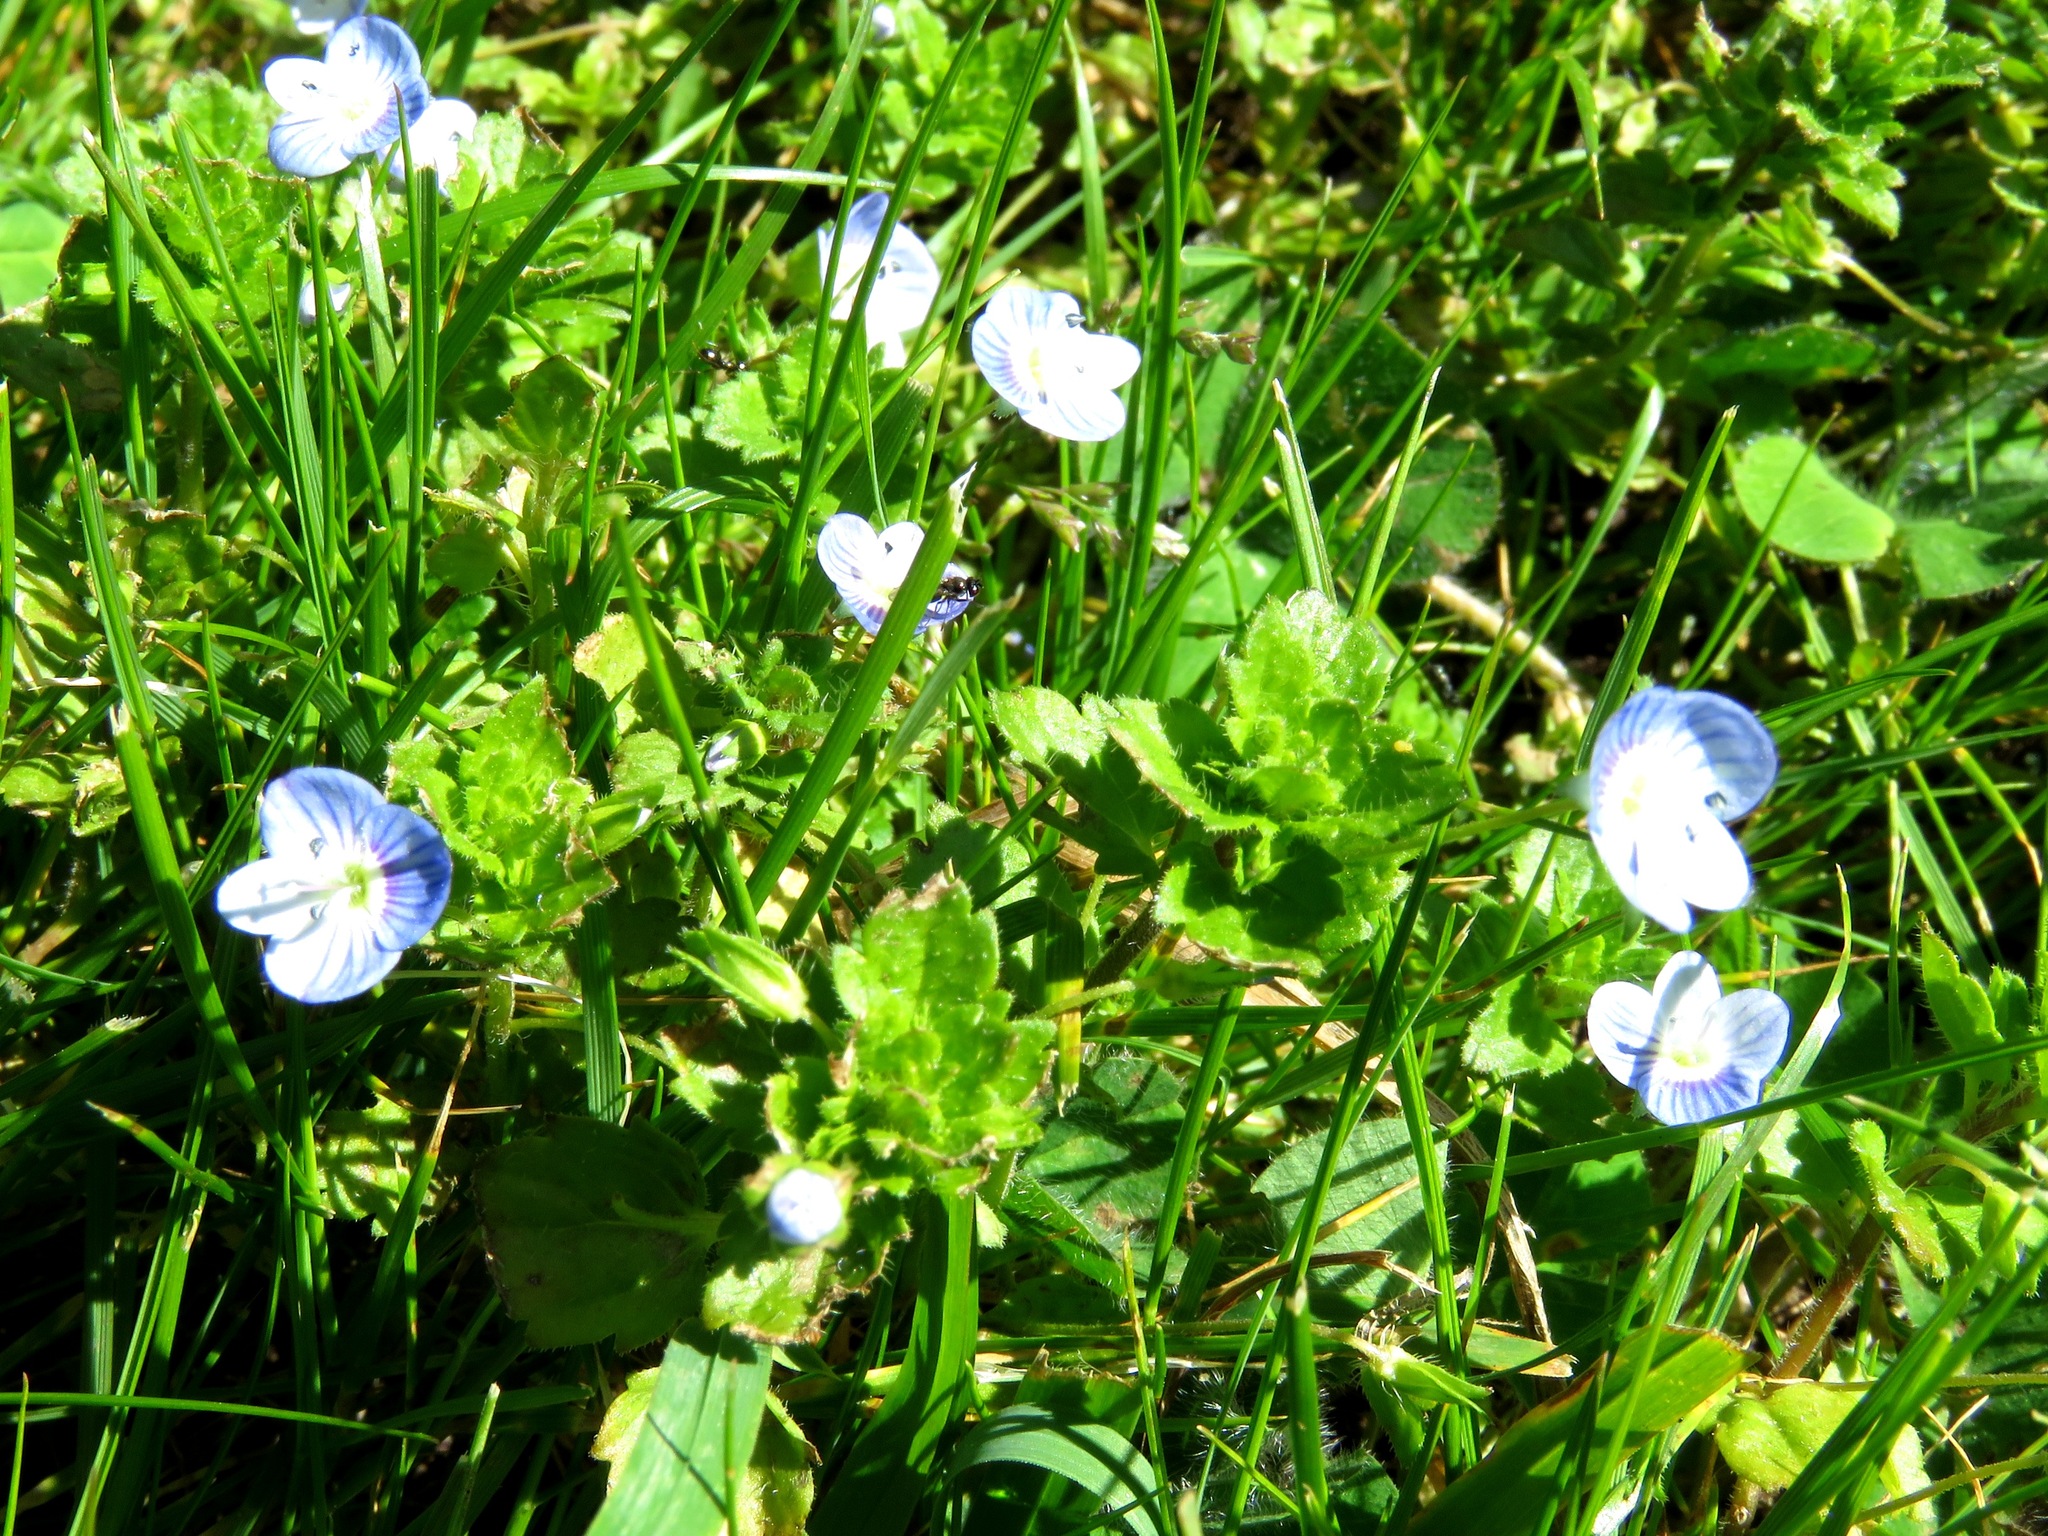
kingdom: Plantae
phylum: Tracheophyta
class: Magnoliopsida
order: Lamiales
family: Plantaginaceae
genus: Veronica
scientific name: Veronica persica
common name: Common field-speedwell
